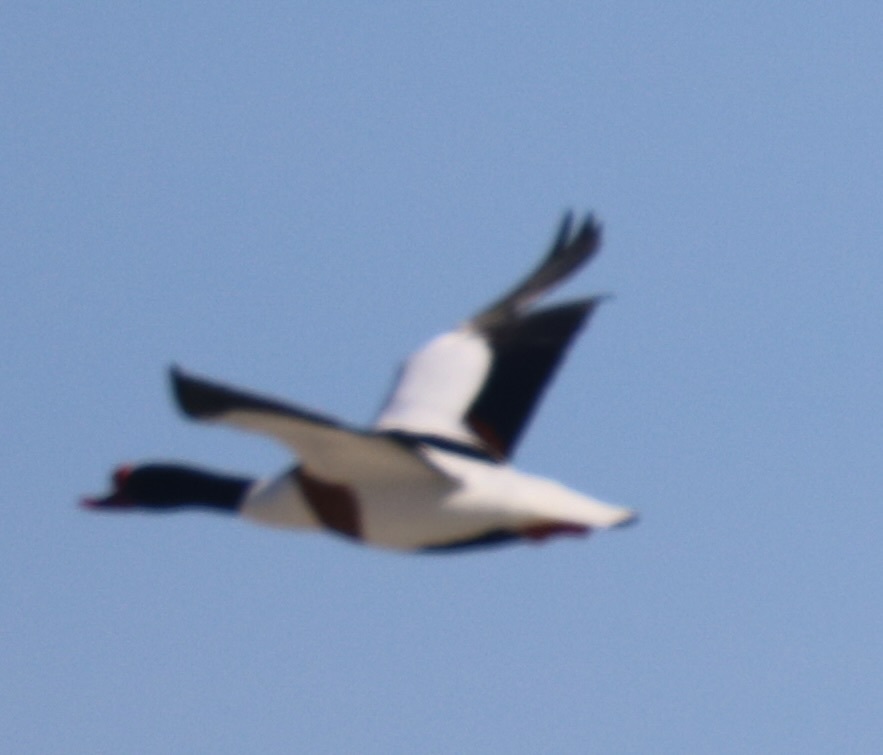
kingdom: Animalia
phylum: Chordata
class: Aves
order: Anseriformes
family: Anatidae
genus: Tadorna
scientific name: Tadorna tadorna
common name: Common shelduck
